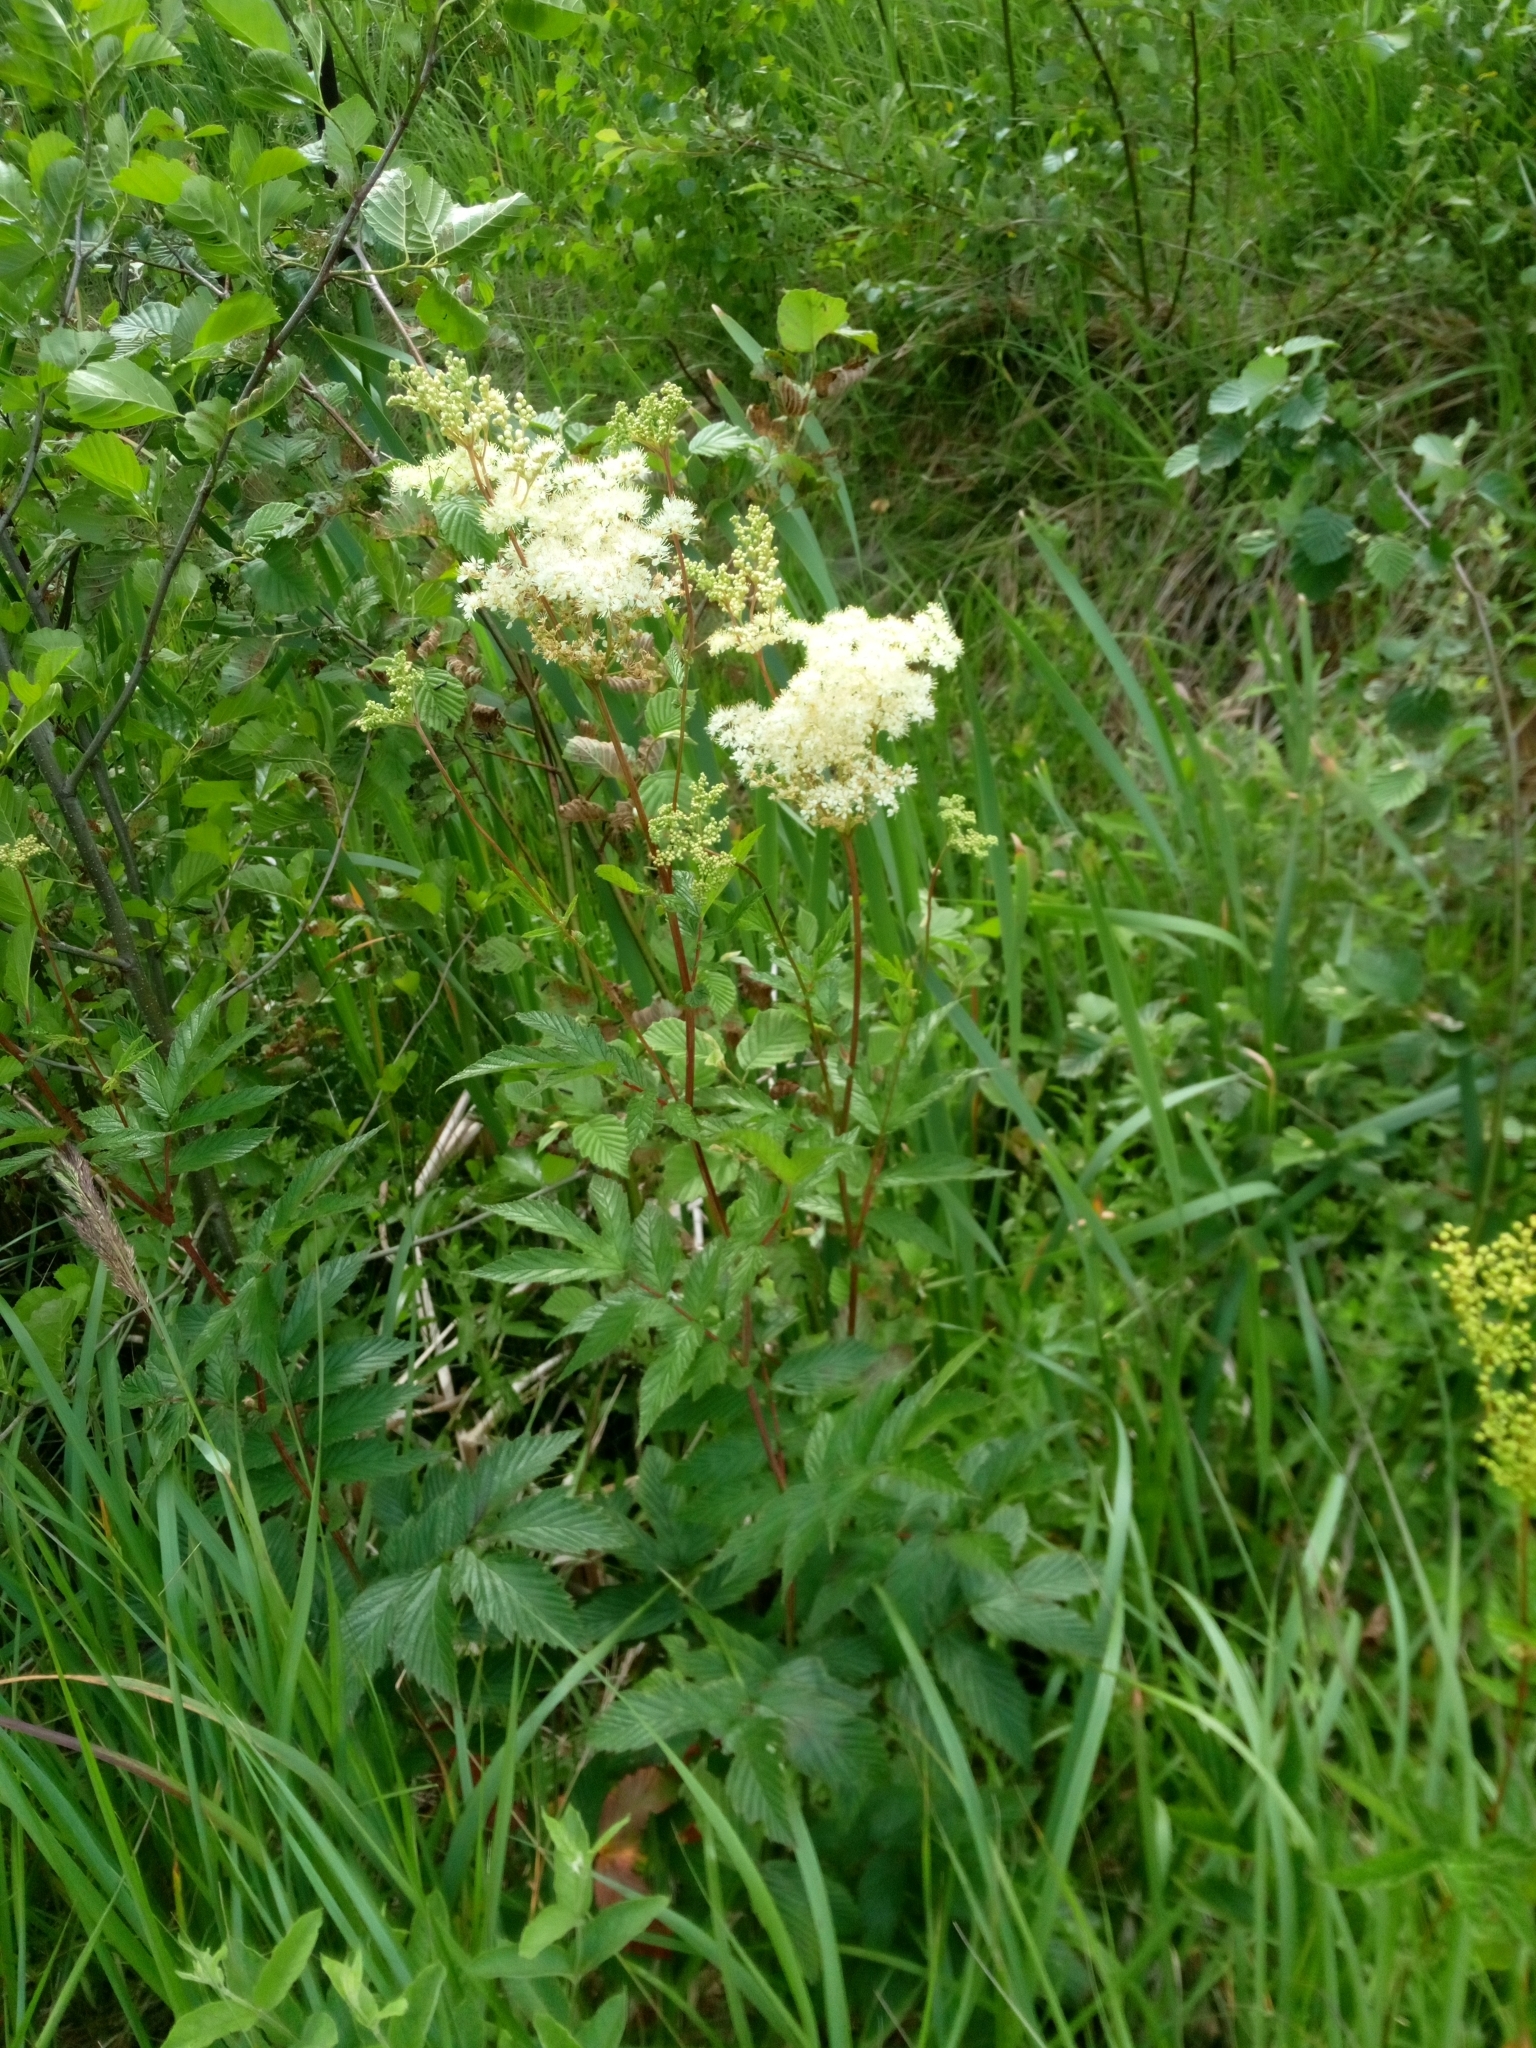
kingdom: Plantae
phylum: Tracheophyta
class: Magnoliopsida
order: Rosales
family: Rosaceae
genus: Filipendula
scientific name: Filipendula ulmaria
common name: Meadowsweet
